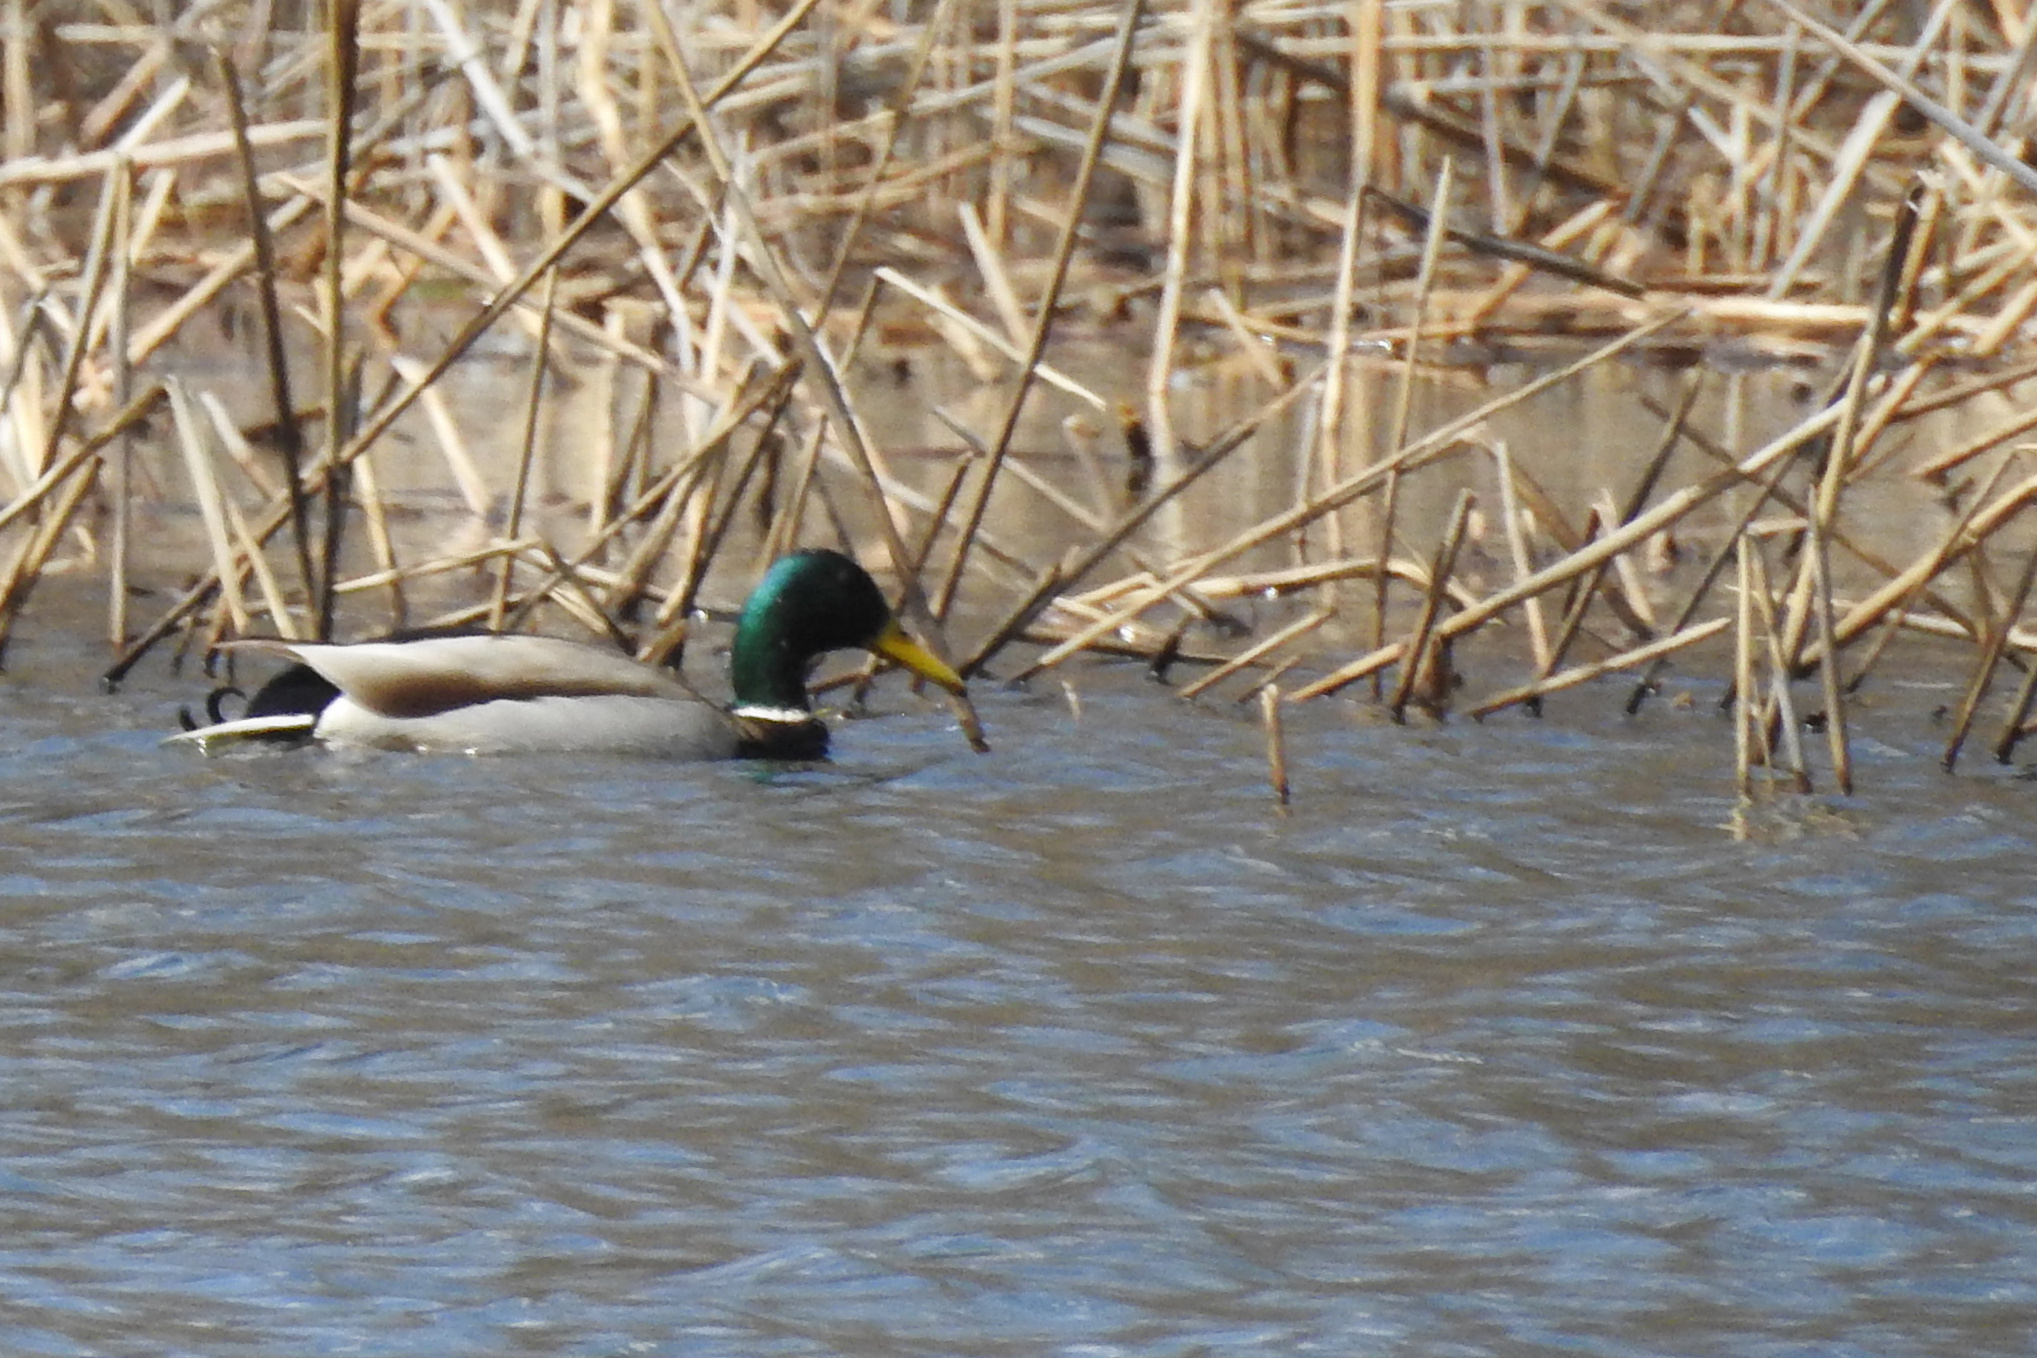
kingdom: Animalia
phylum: Chordata
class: Aves
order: Anseriformes
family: Anatidae
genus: Anas
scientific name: Anas platyrhynchos
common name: Mallard
